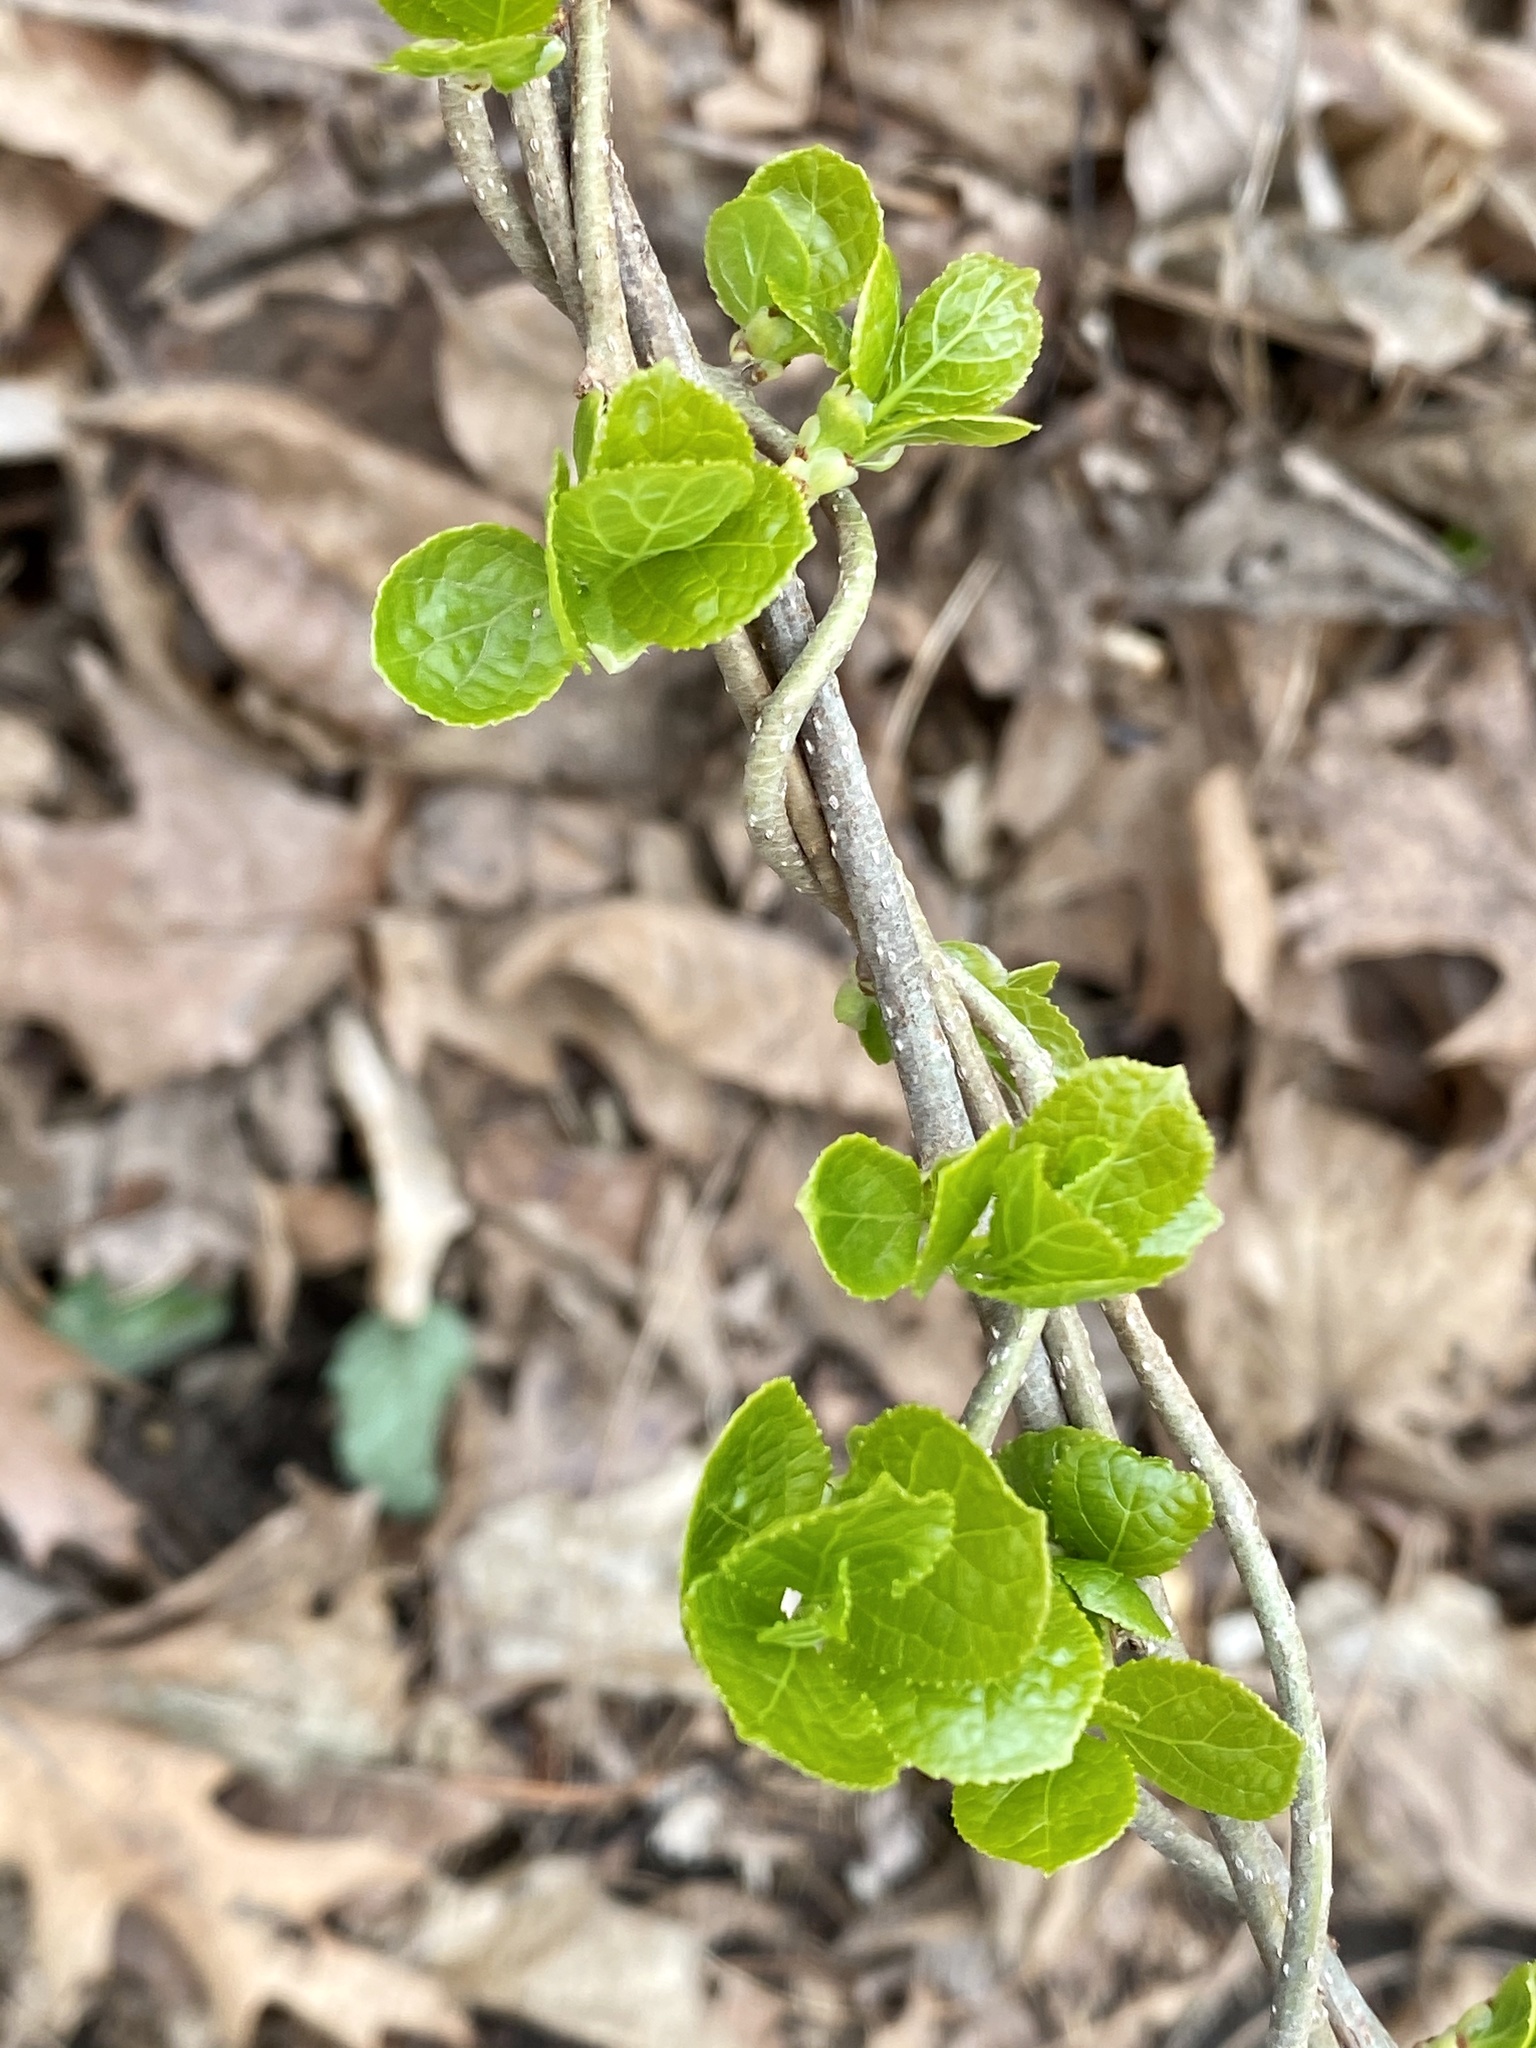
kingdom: Plantae
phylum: Tracheophyta
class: Magnoliopsida
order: Celastrales
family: Celastraceae
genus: Celastrus
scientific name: Celastrus orbiculatus
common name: Oriental bittersweet
